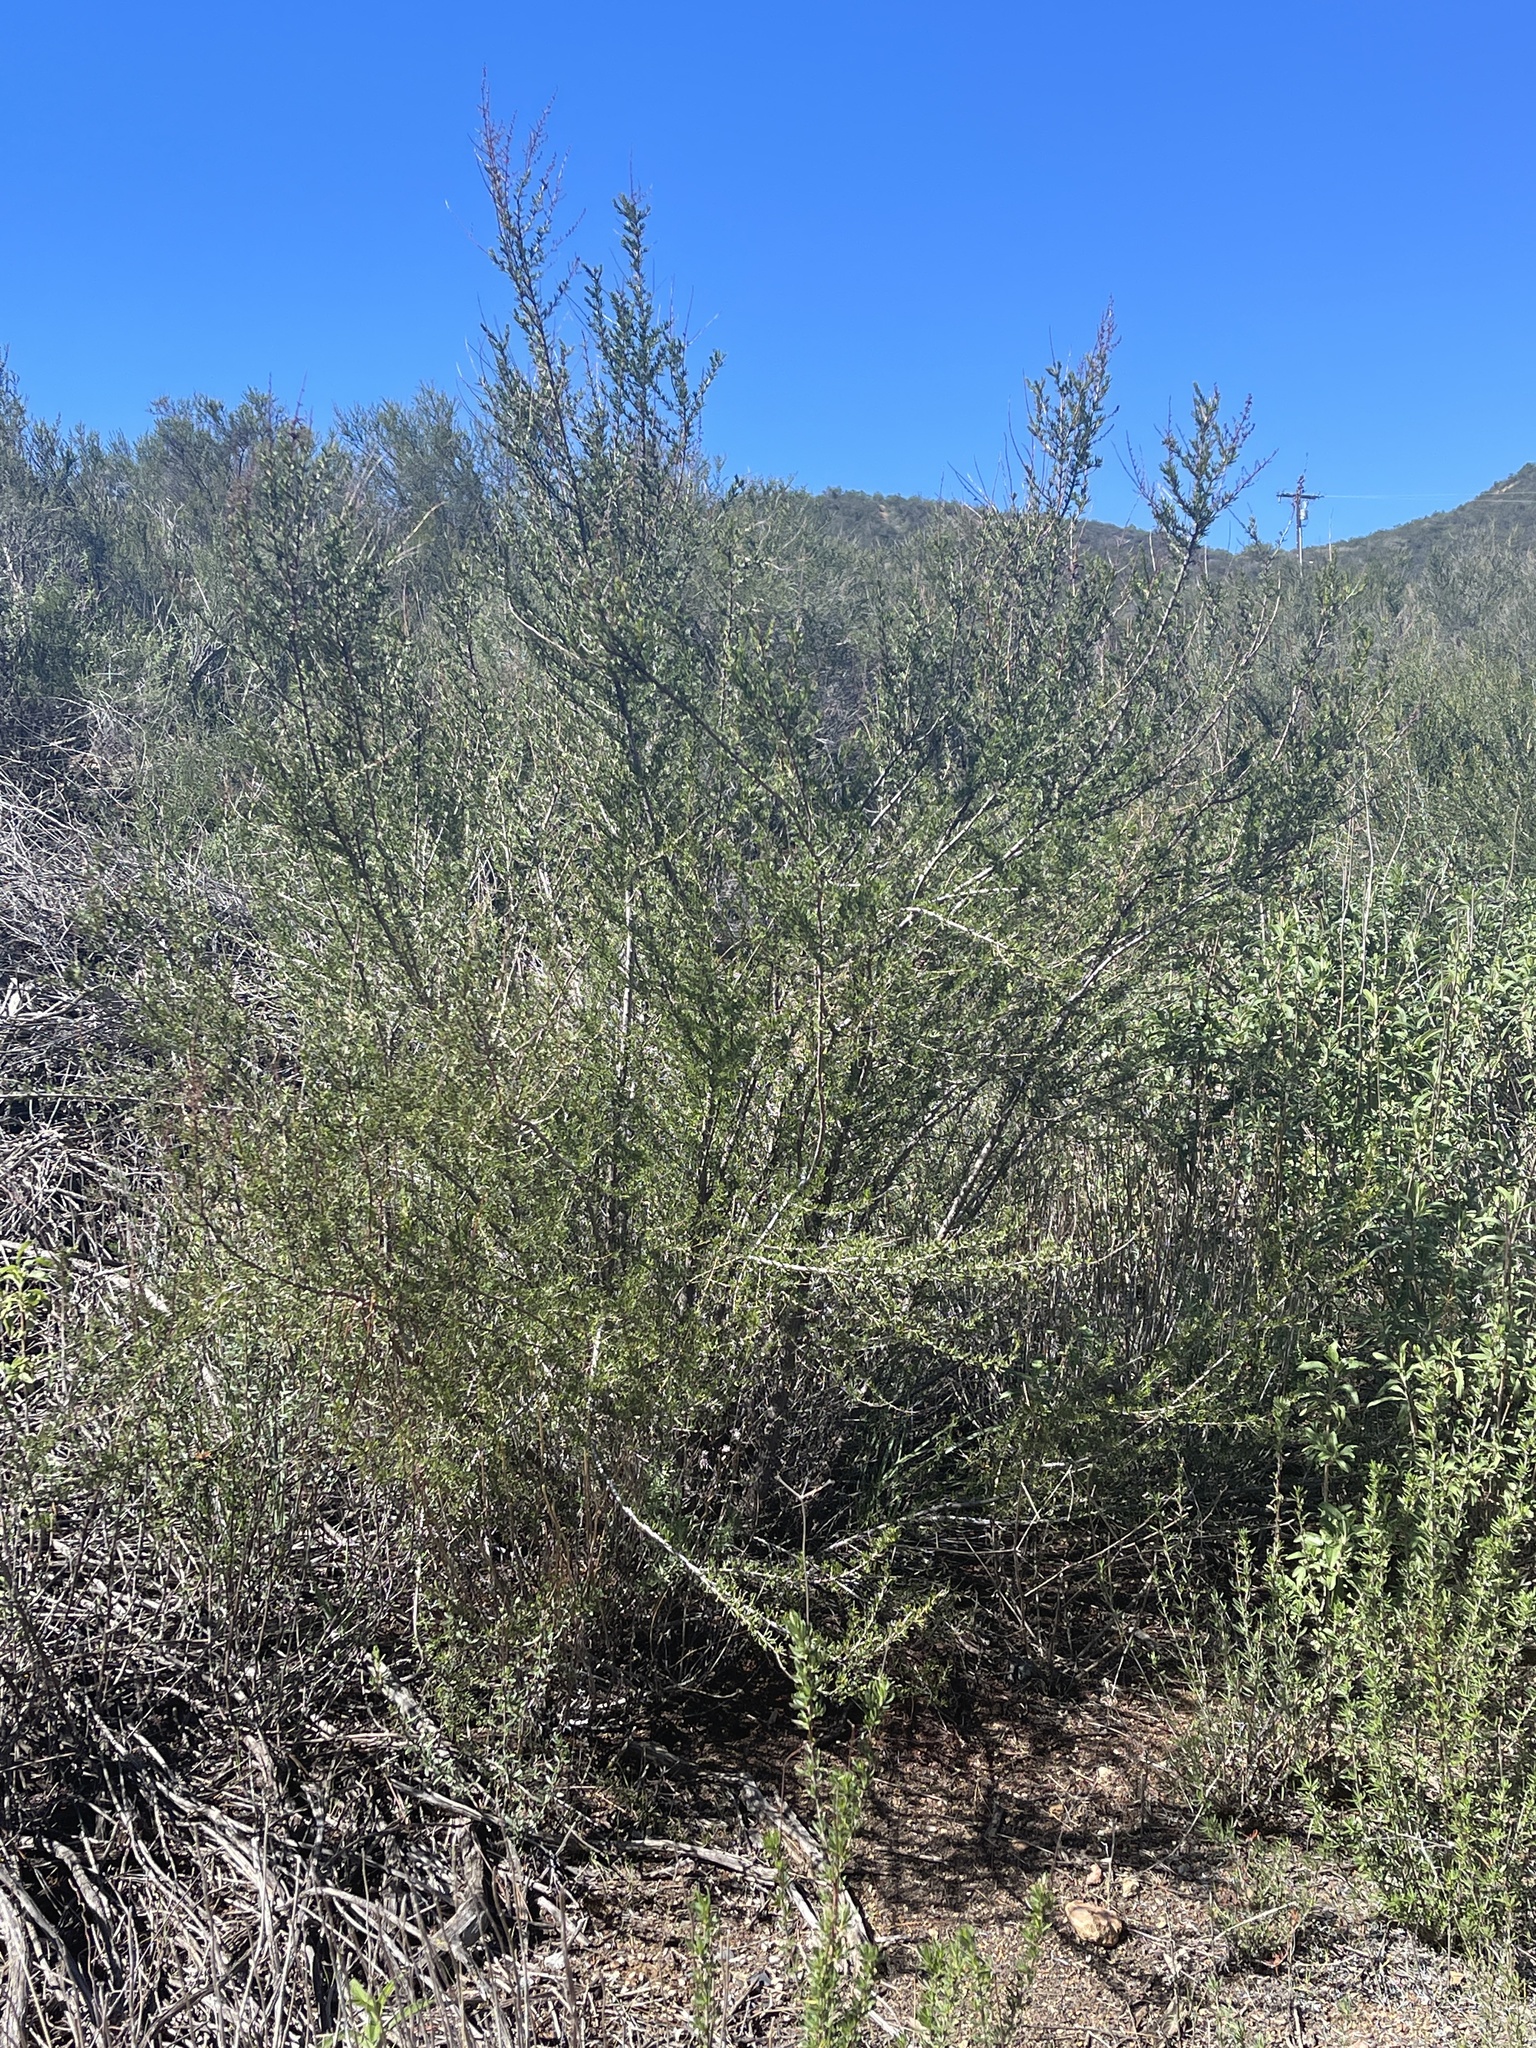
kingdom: Plantae
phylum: Tracheophyta
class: Magnoliopsida
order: Rosales
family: Rosaceae
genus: Adenostoma
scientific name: Adenostoma fasciculatum
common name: Chamise
